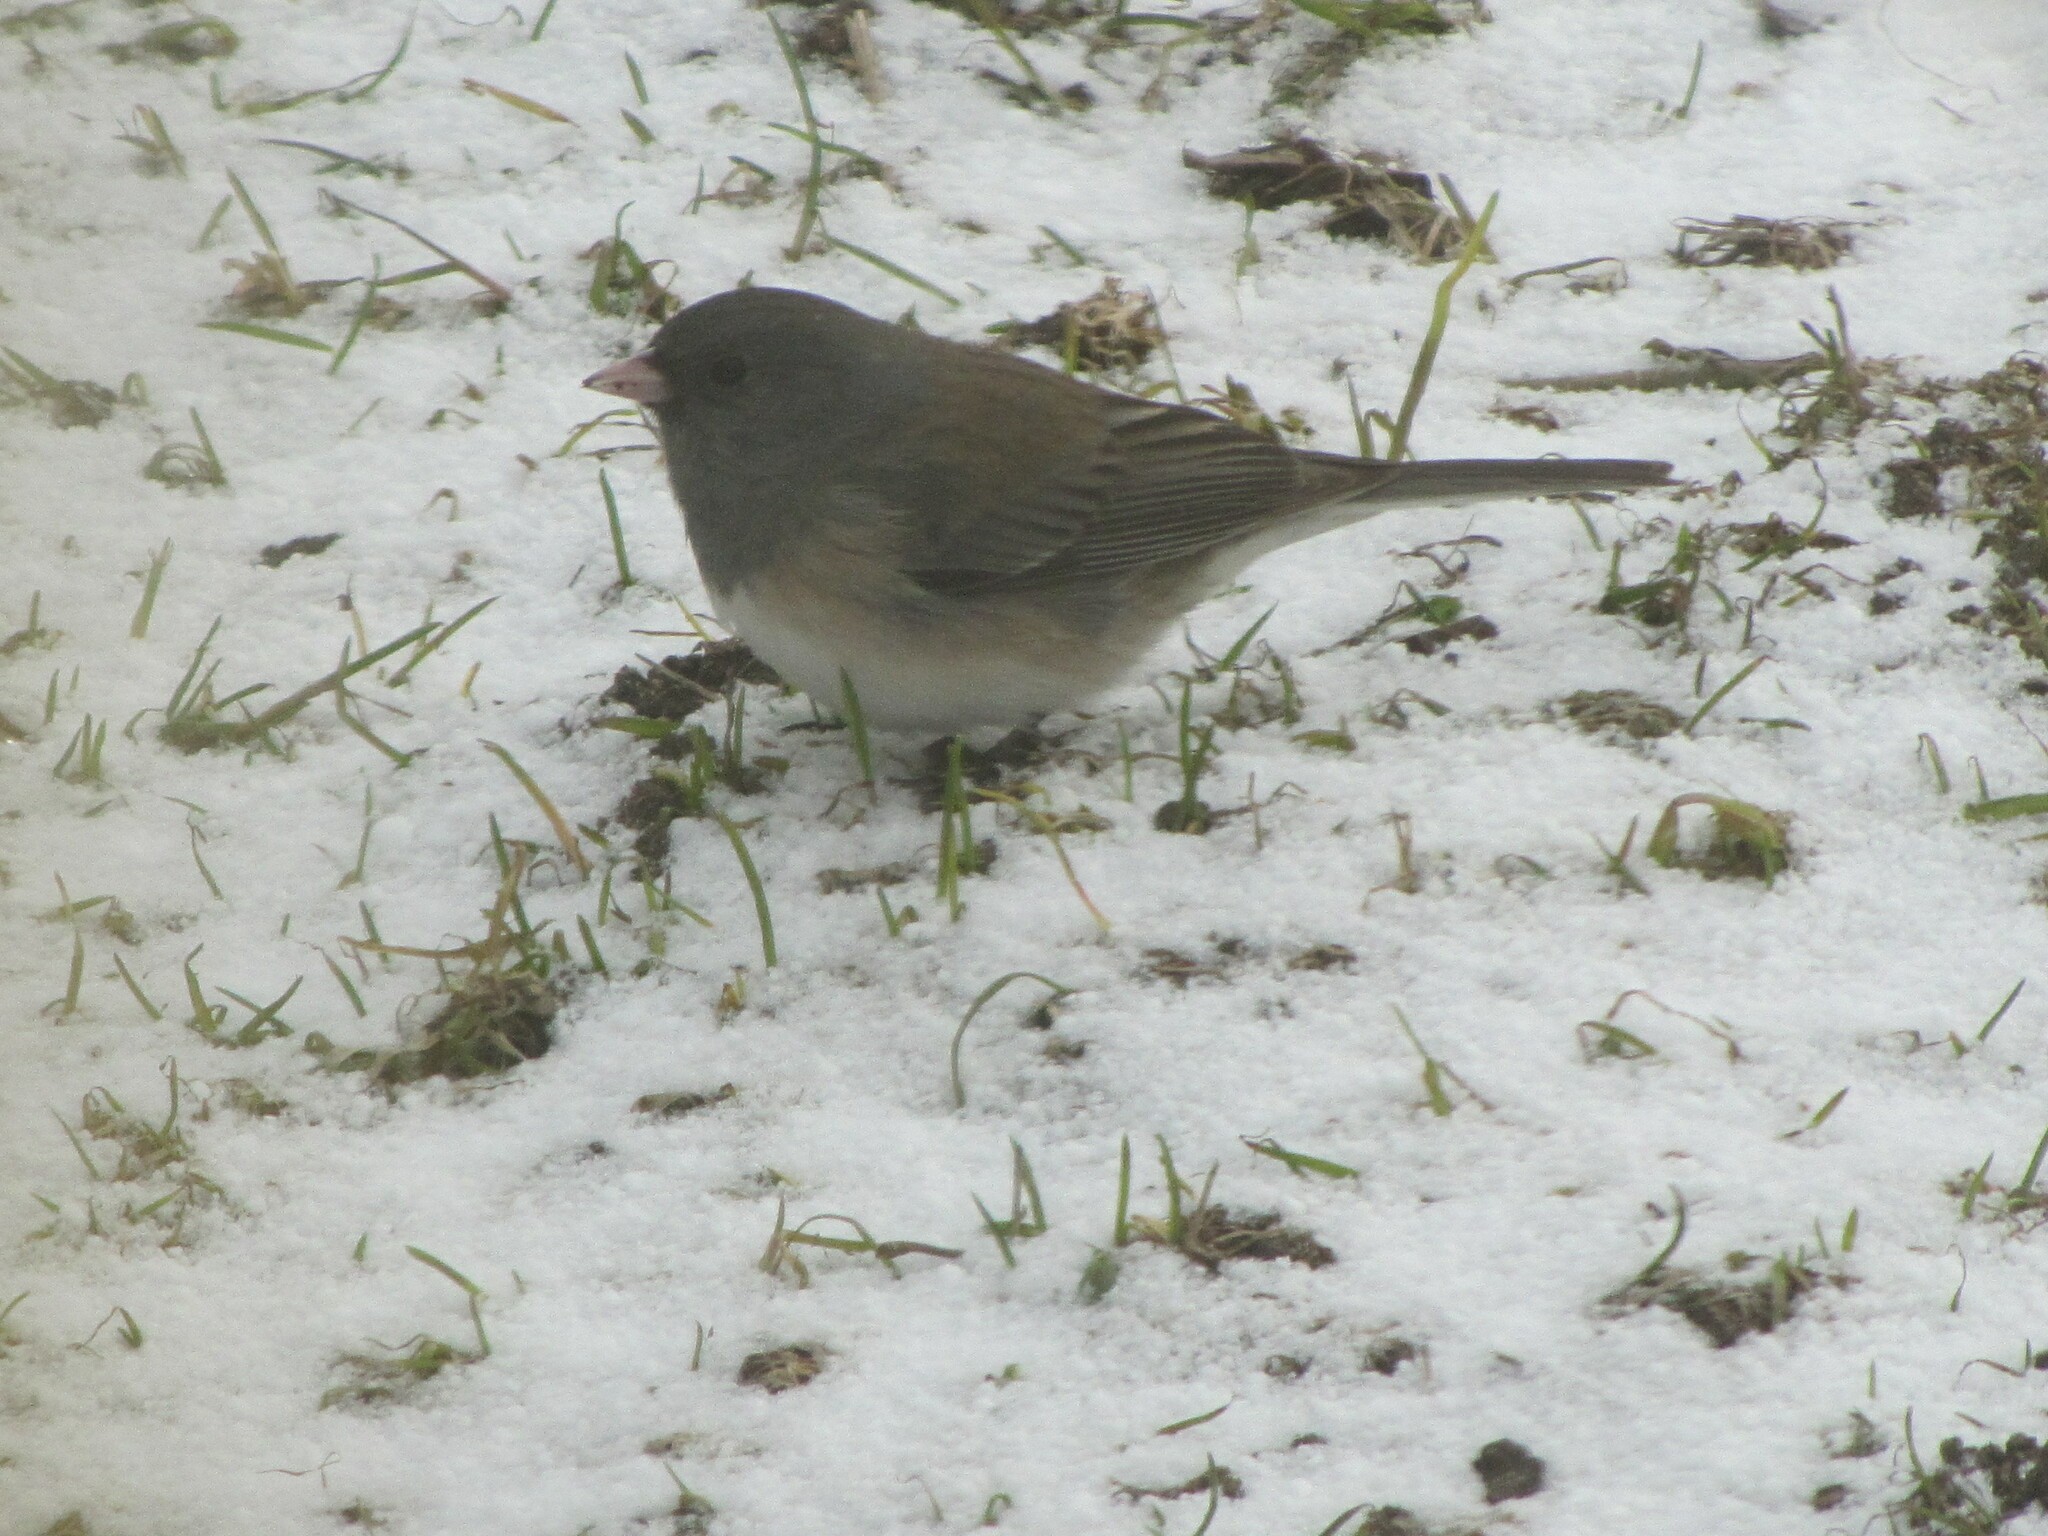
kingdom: Animalia
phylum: Chordata
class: Aves
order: Passeriformes
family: Passerellidae
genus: Junco
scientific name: Junco hyemalis
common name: Dark-eyed junco
